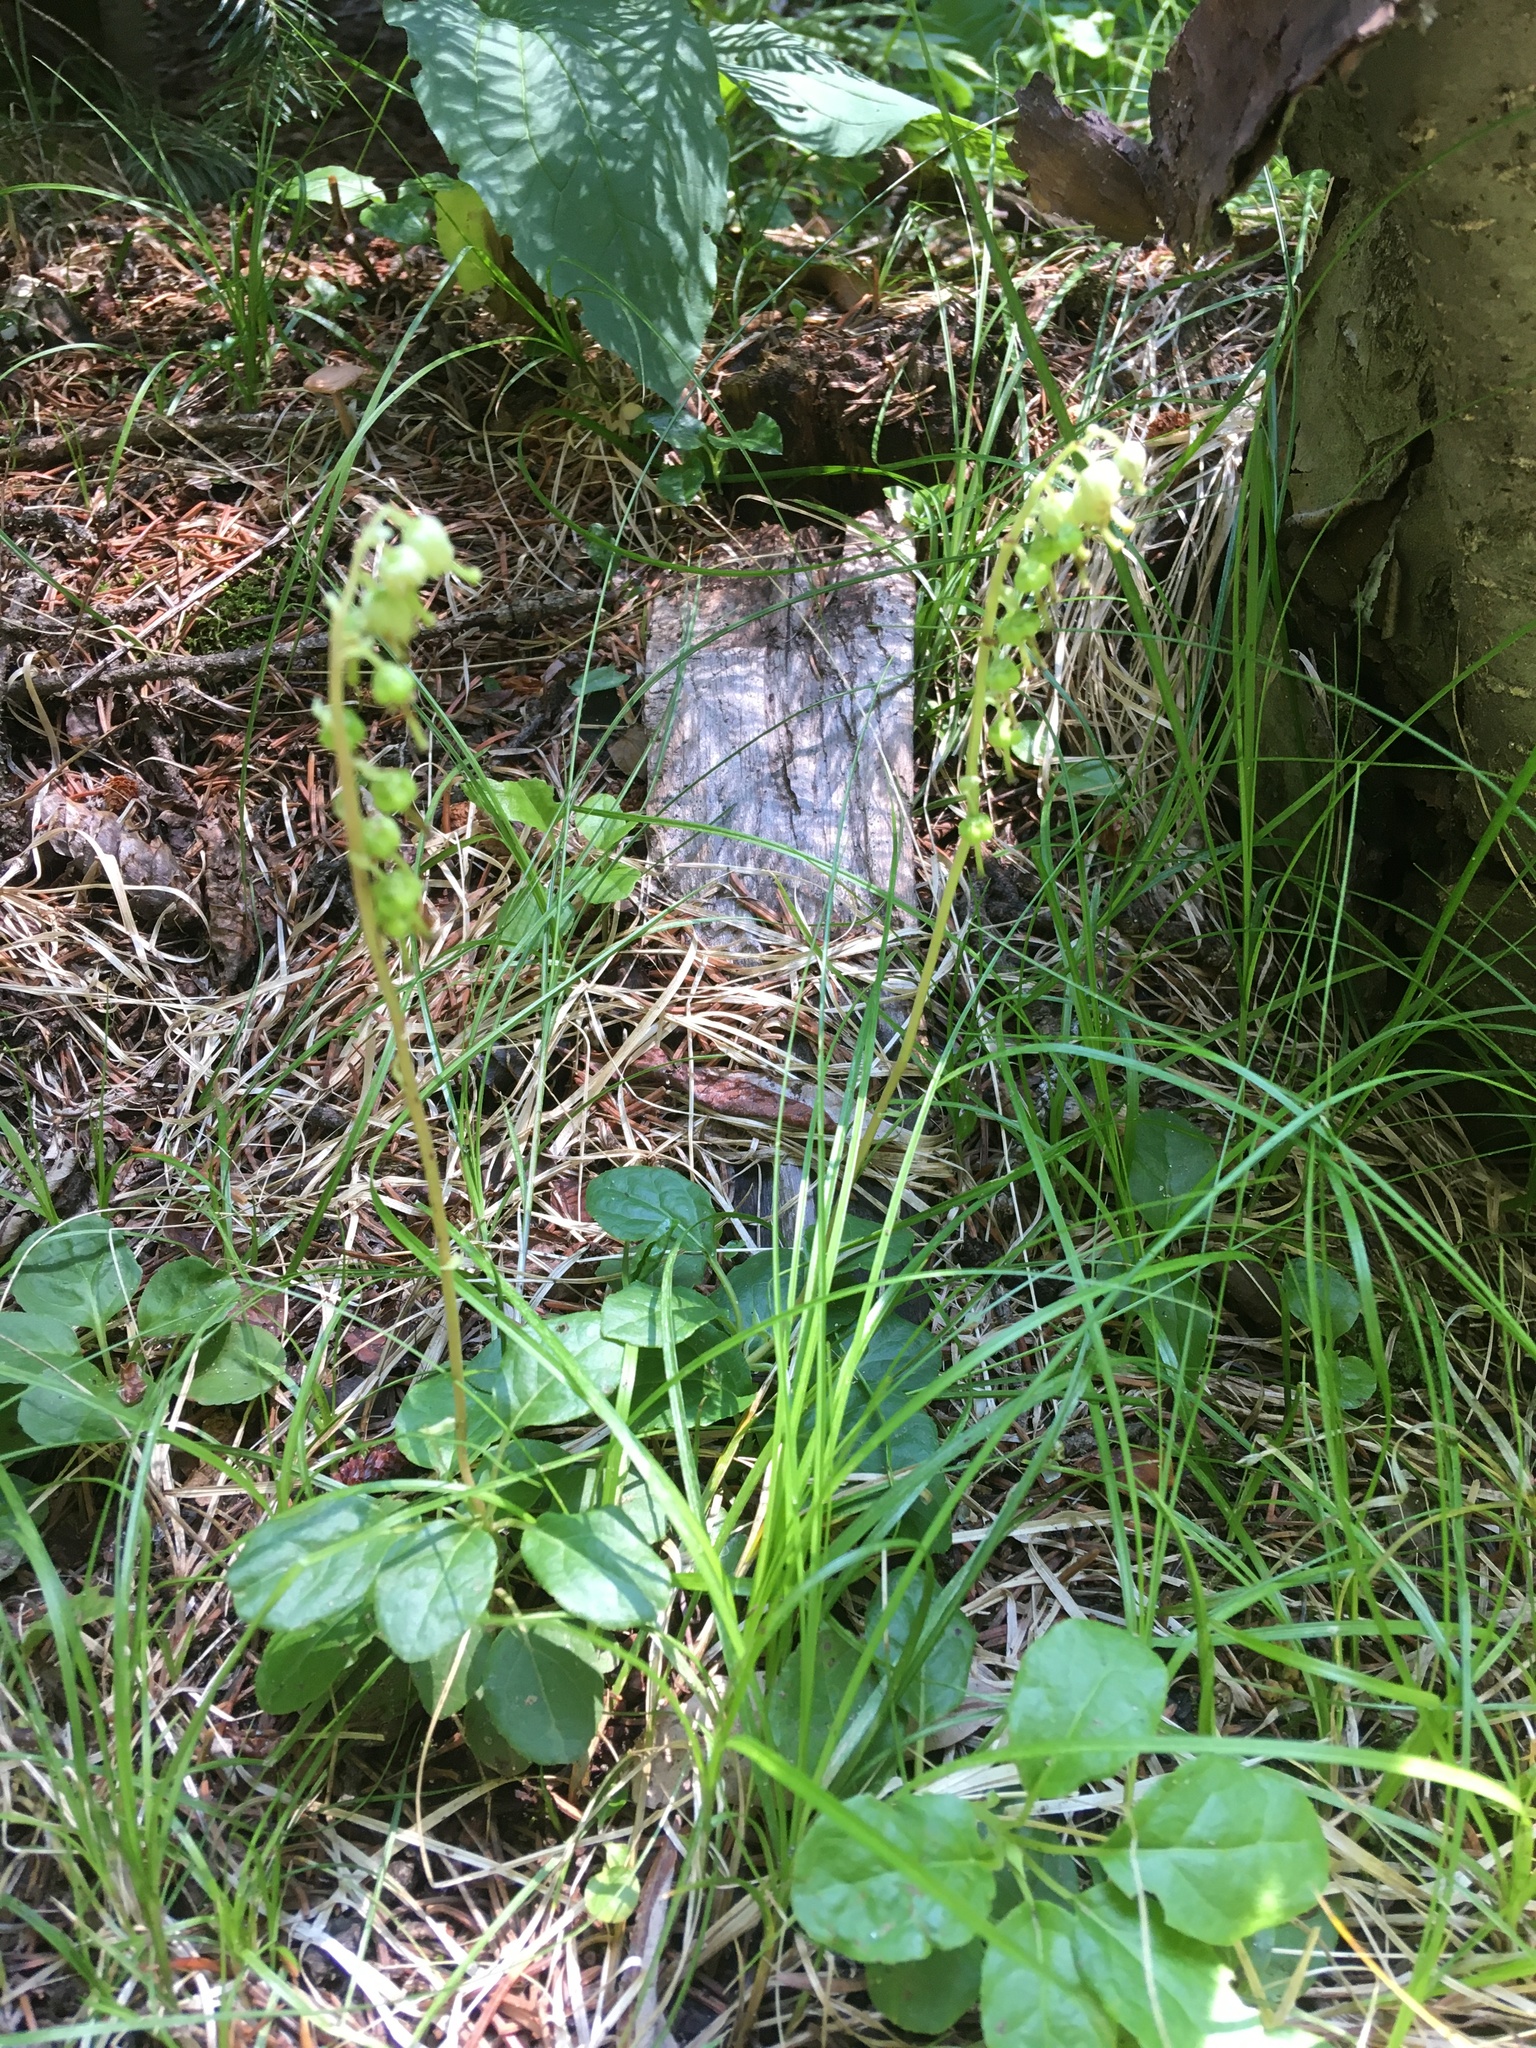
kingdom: Plantae
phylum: Tracheophyta
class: Magnoliopsida
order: Ericales
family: Ericaceae
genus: Orthilia
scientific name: Orthilia secunda
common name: One-sided orthilia
